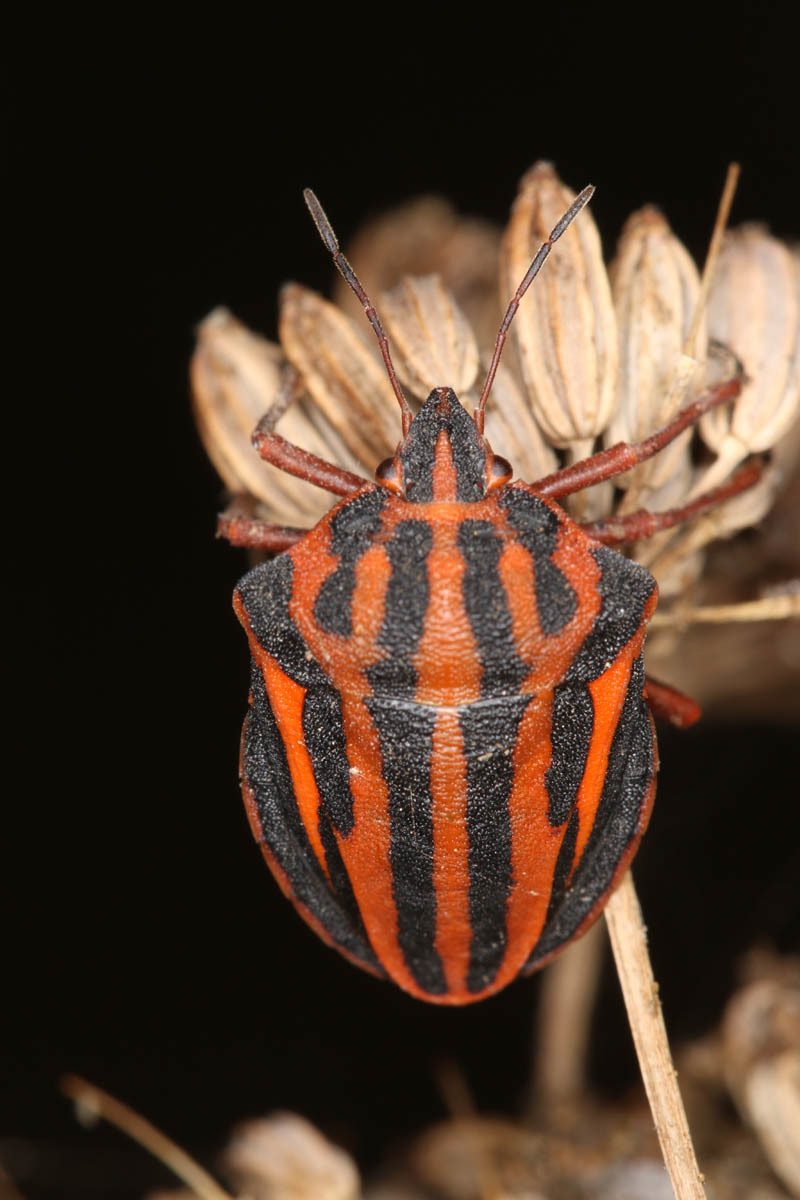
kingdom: Animalia
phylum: Arthropoda
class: Insecta
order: Hemiptera
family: Pentatomidae
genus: Graphosoma
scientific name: Graphosoma interruptum
